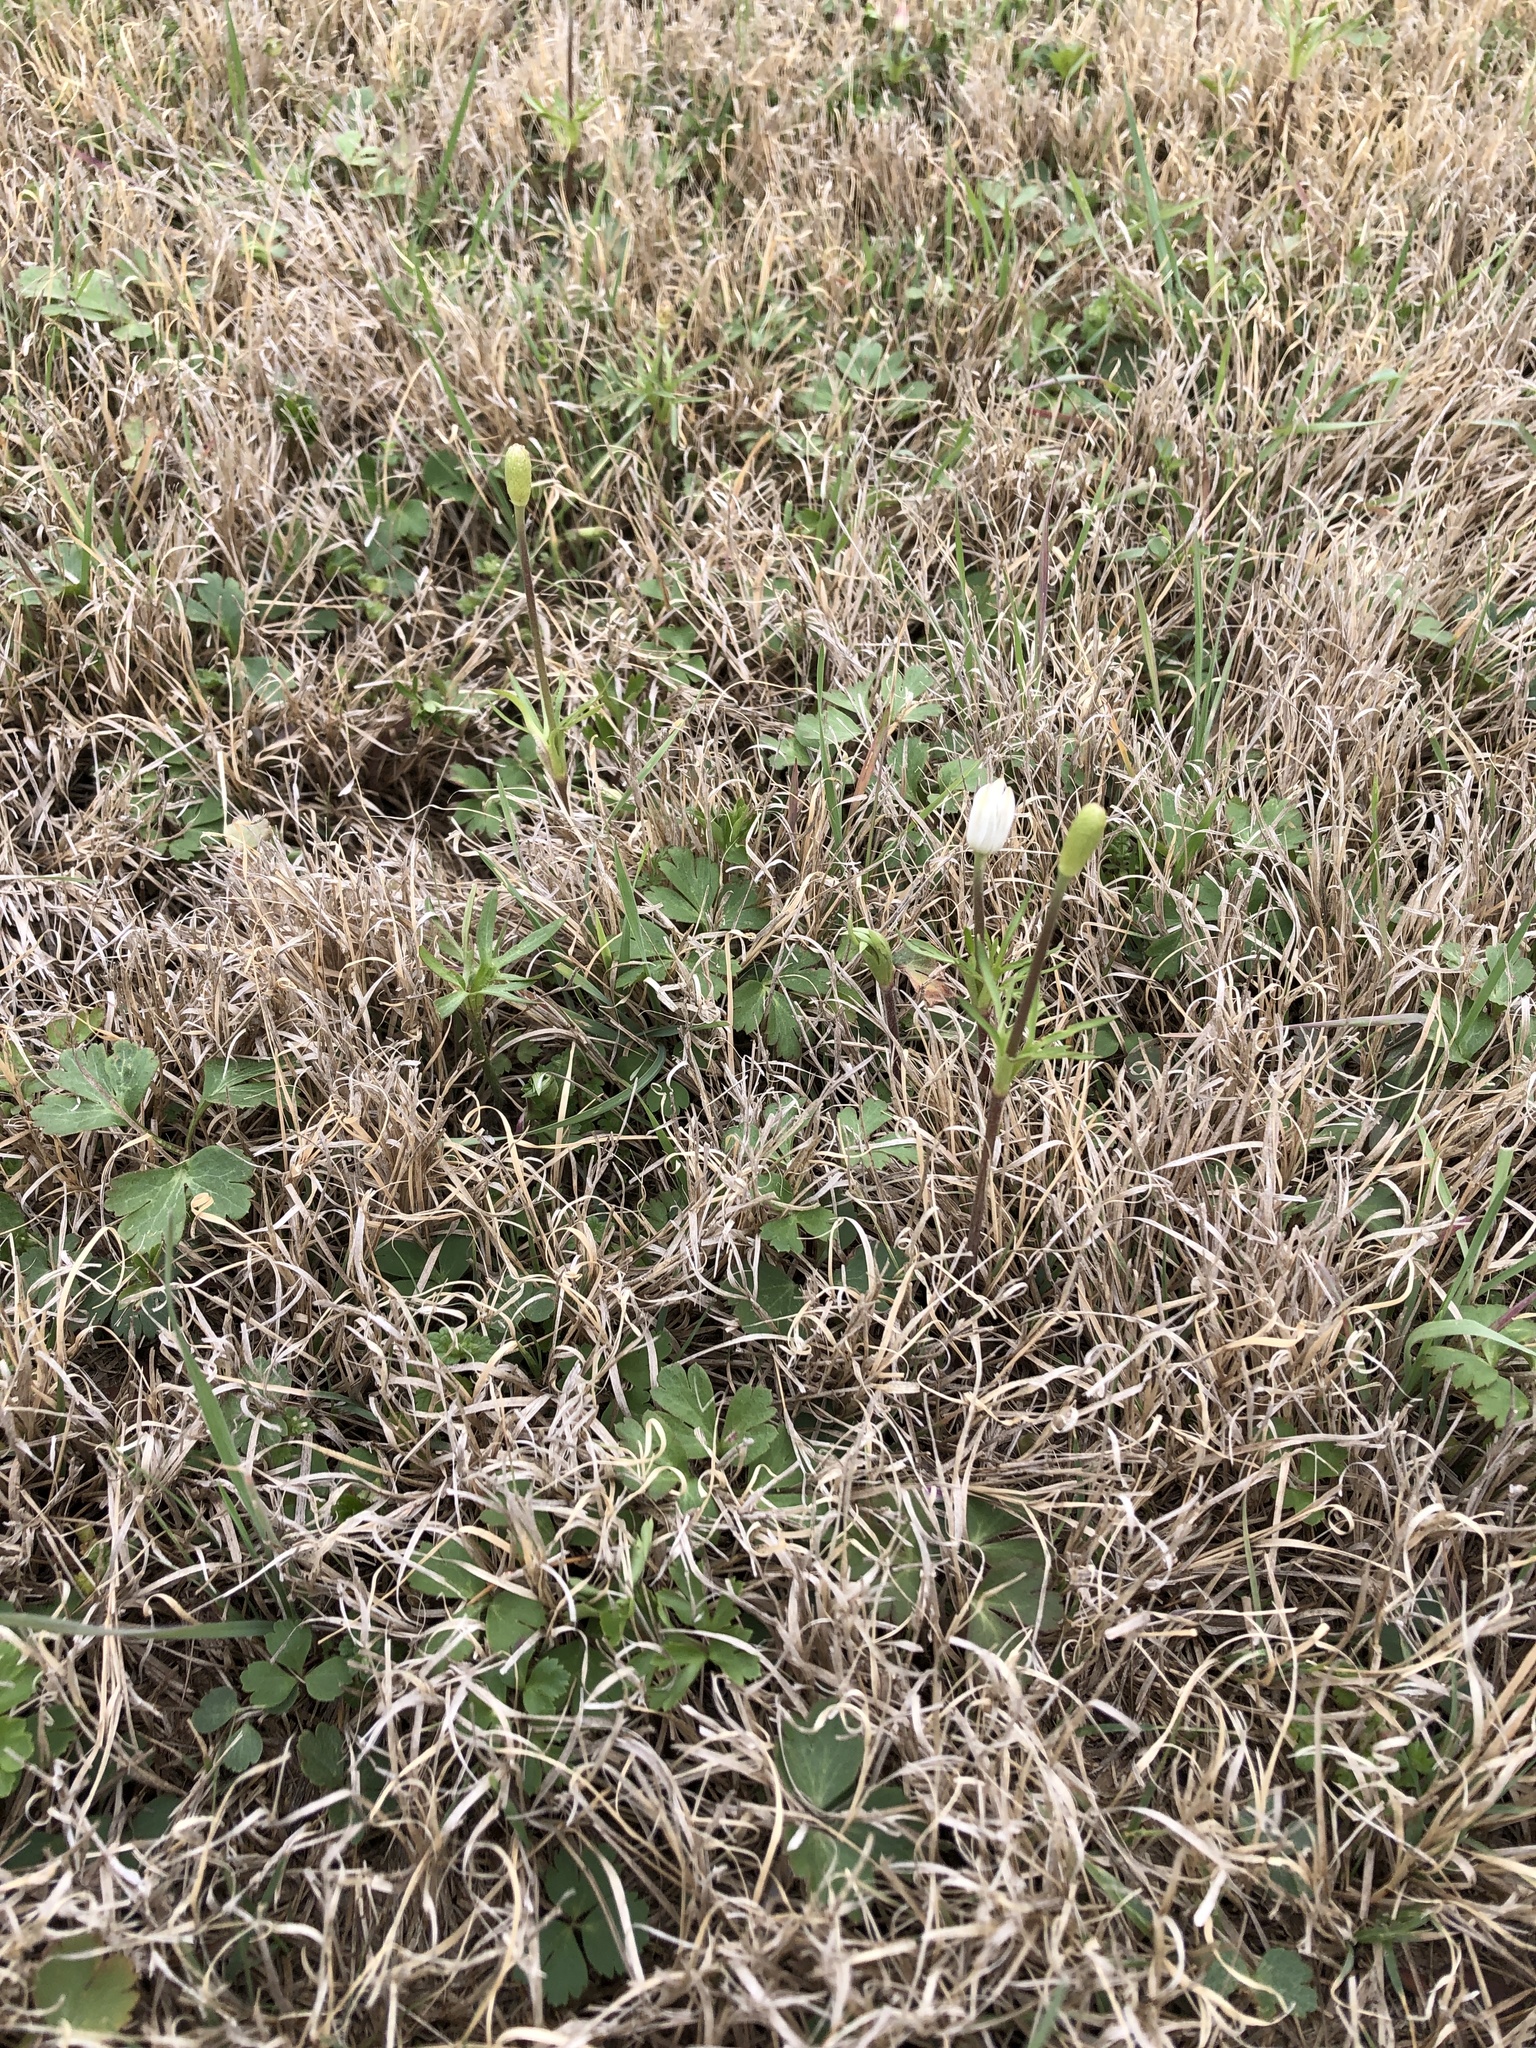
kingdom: Plantae
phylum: Tracheophyta
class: Magnoliopsida
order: Ranunculales
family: Ranunculaceae
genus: Anemone
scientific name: Anemone berlandieri
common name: Ten-petal anemone
